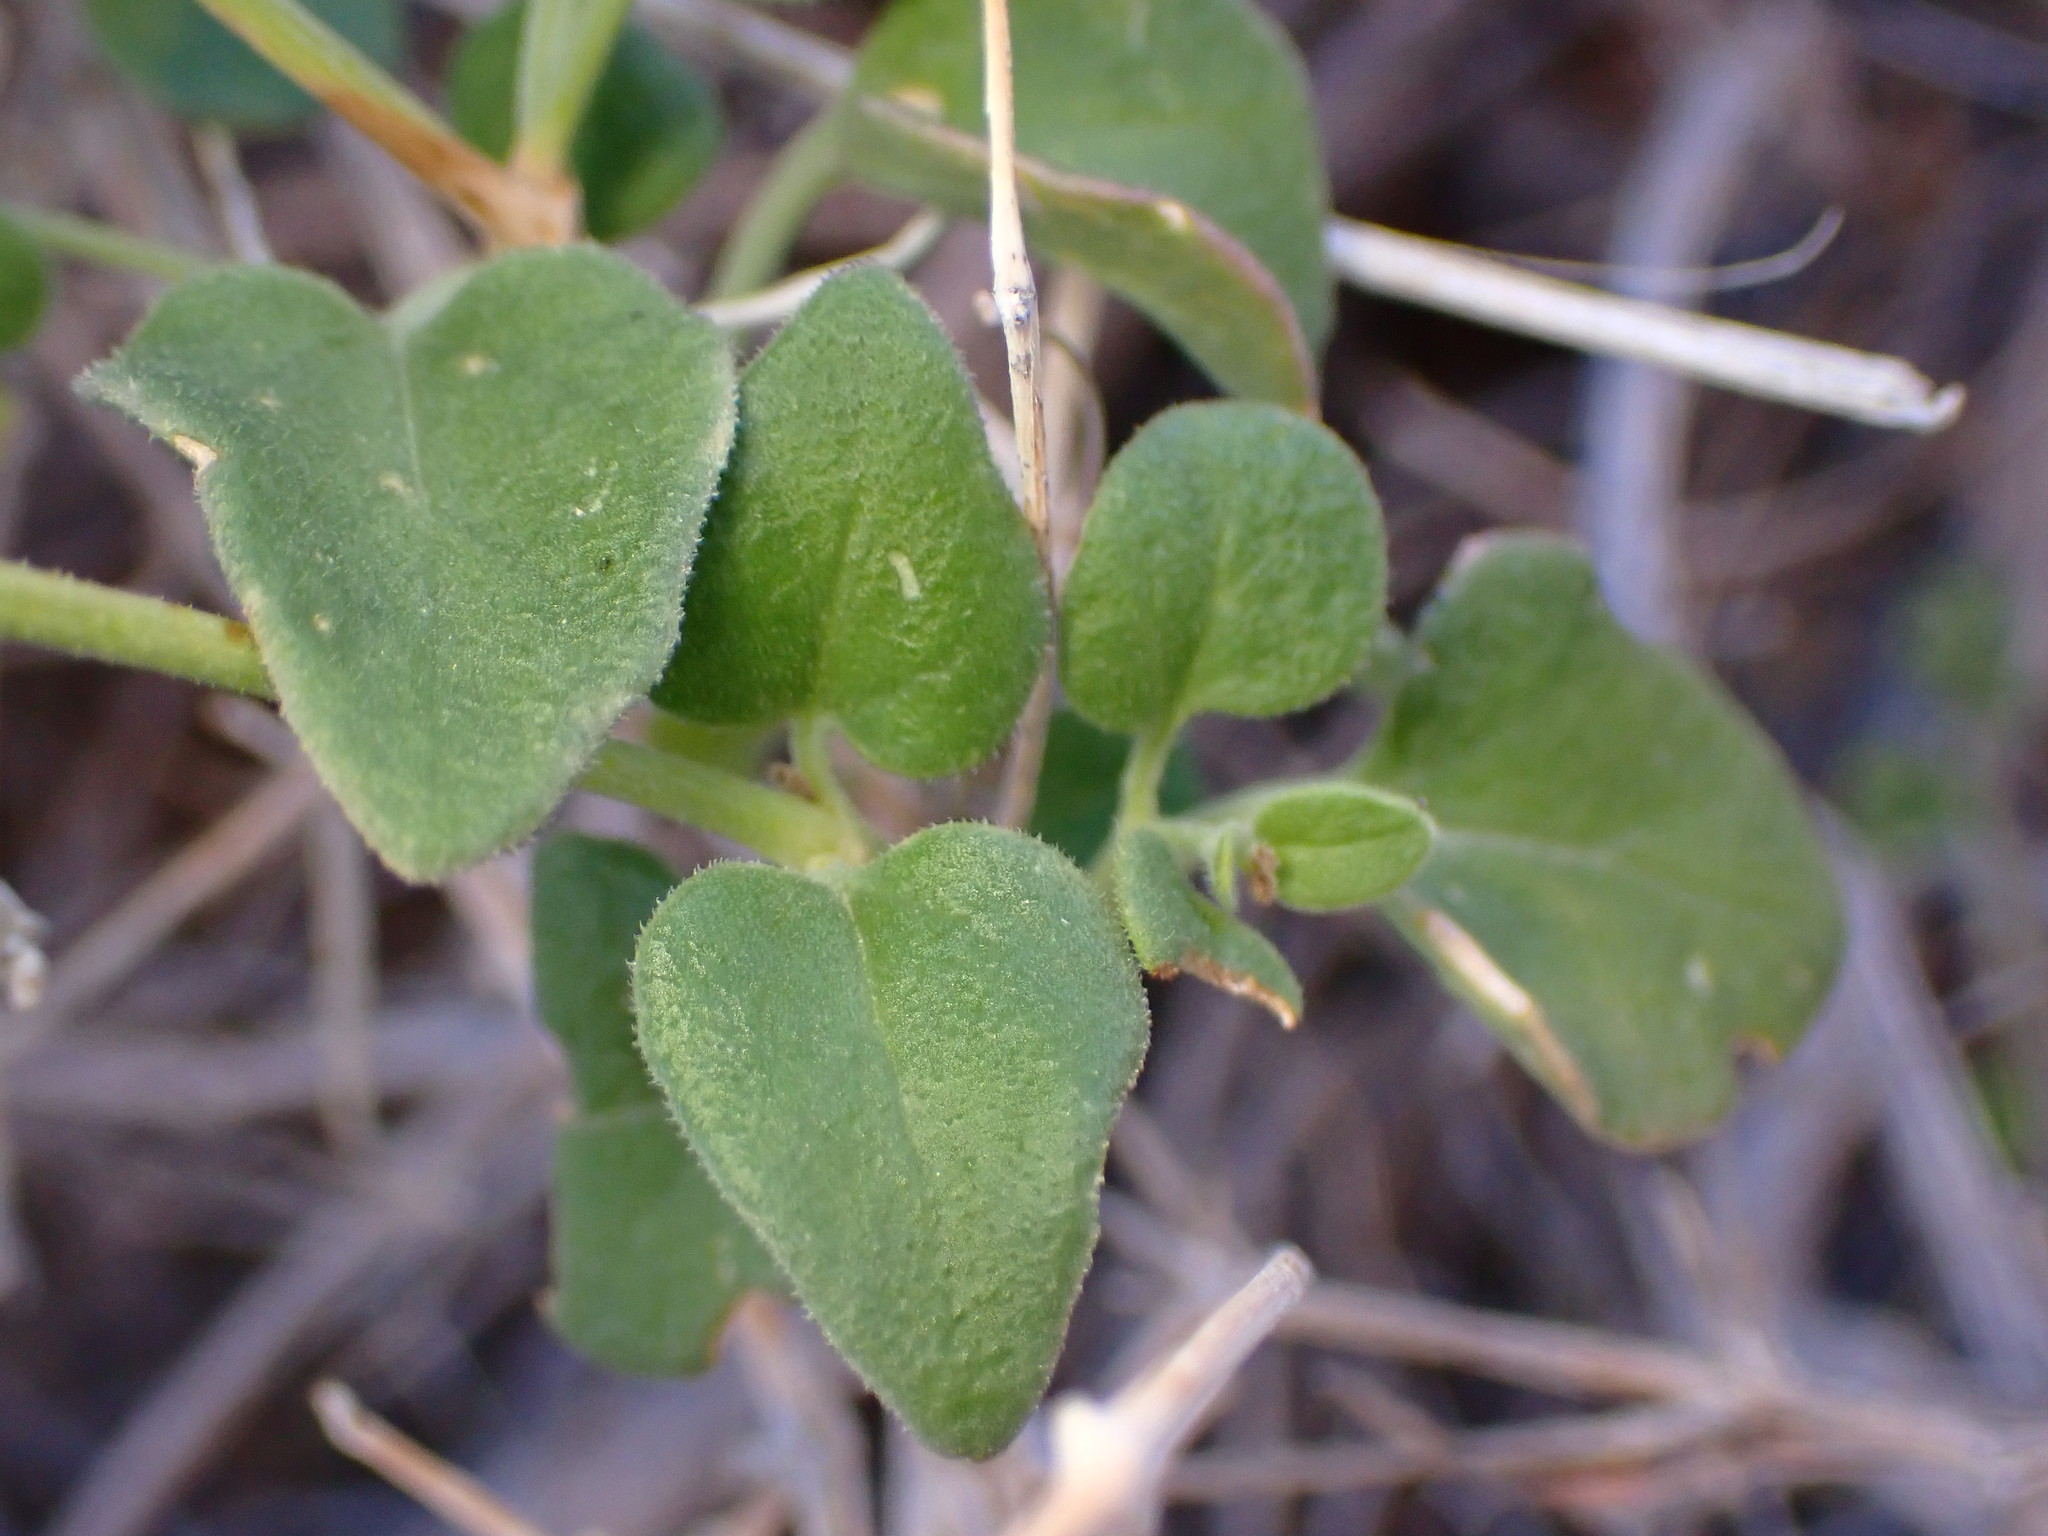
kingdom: Plantae
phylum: Tracheophyta
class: Magnoliopsida
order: Solanales
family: Solanaceae
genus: Physalis
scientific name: Physalis crassifolia
